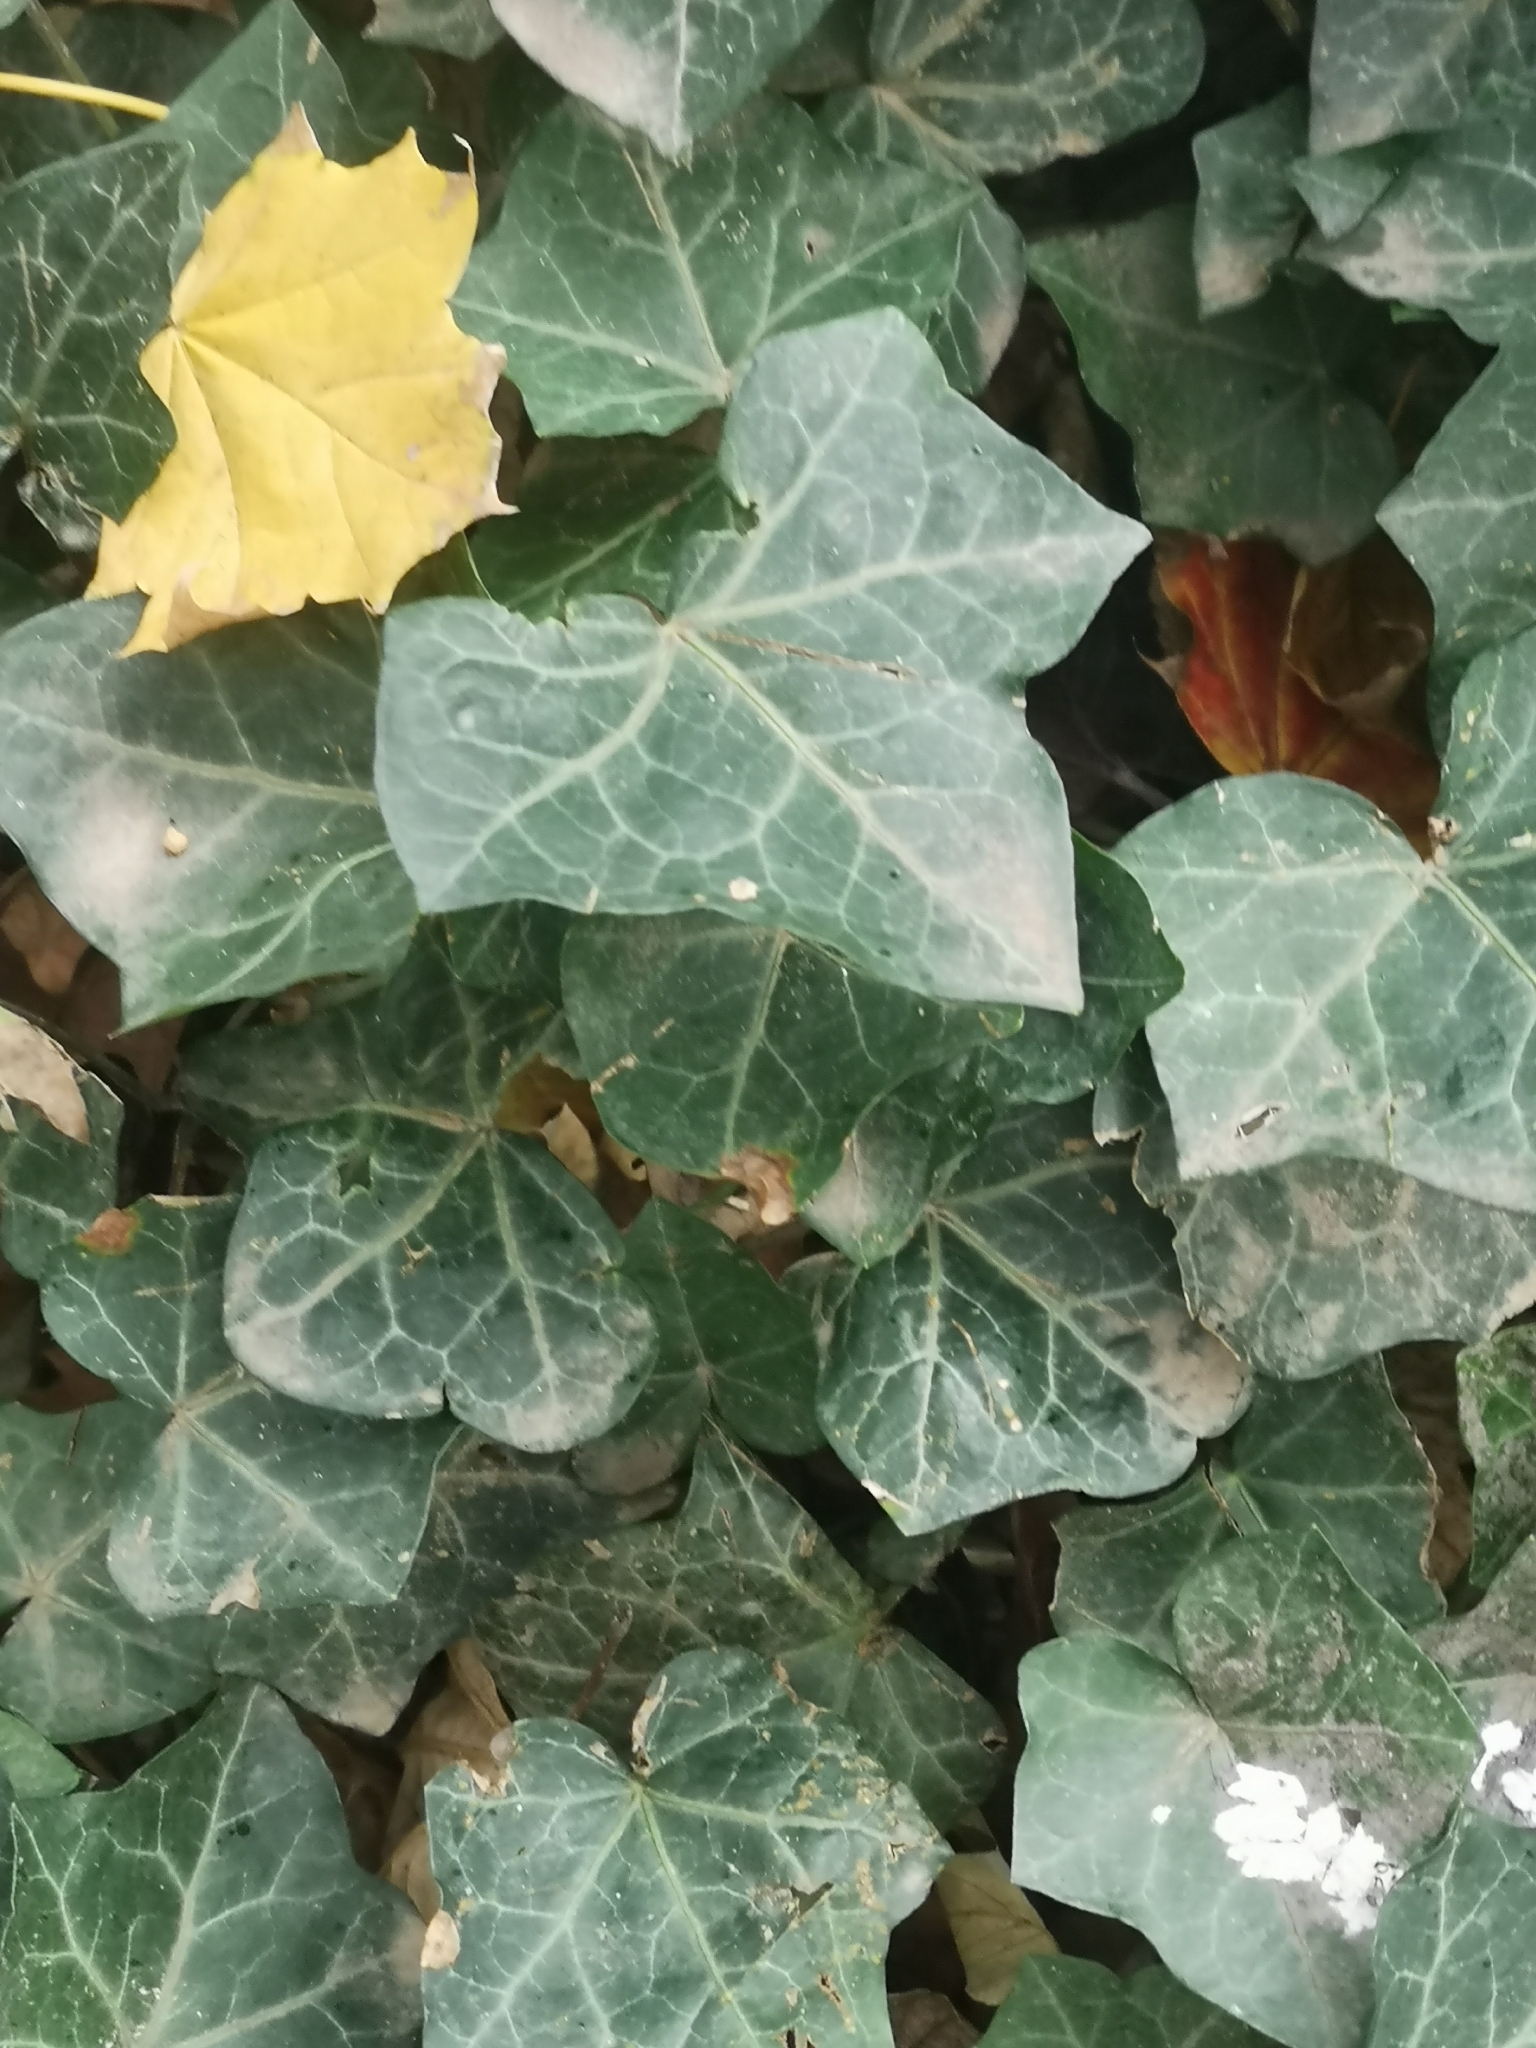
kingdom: Plantae
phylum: Tracheophyta
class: Magnoliopsida
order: Apiales
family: Araliaceae
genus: Hedera
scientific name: Hedera helix
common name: Ivy
